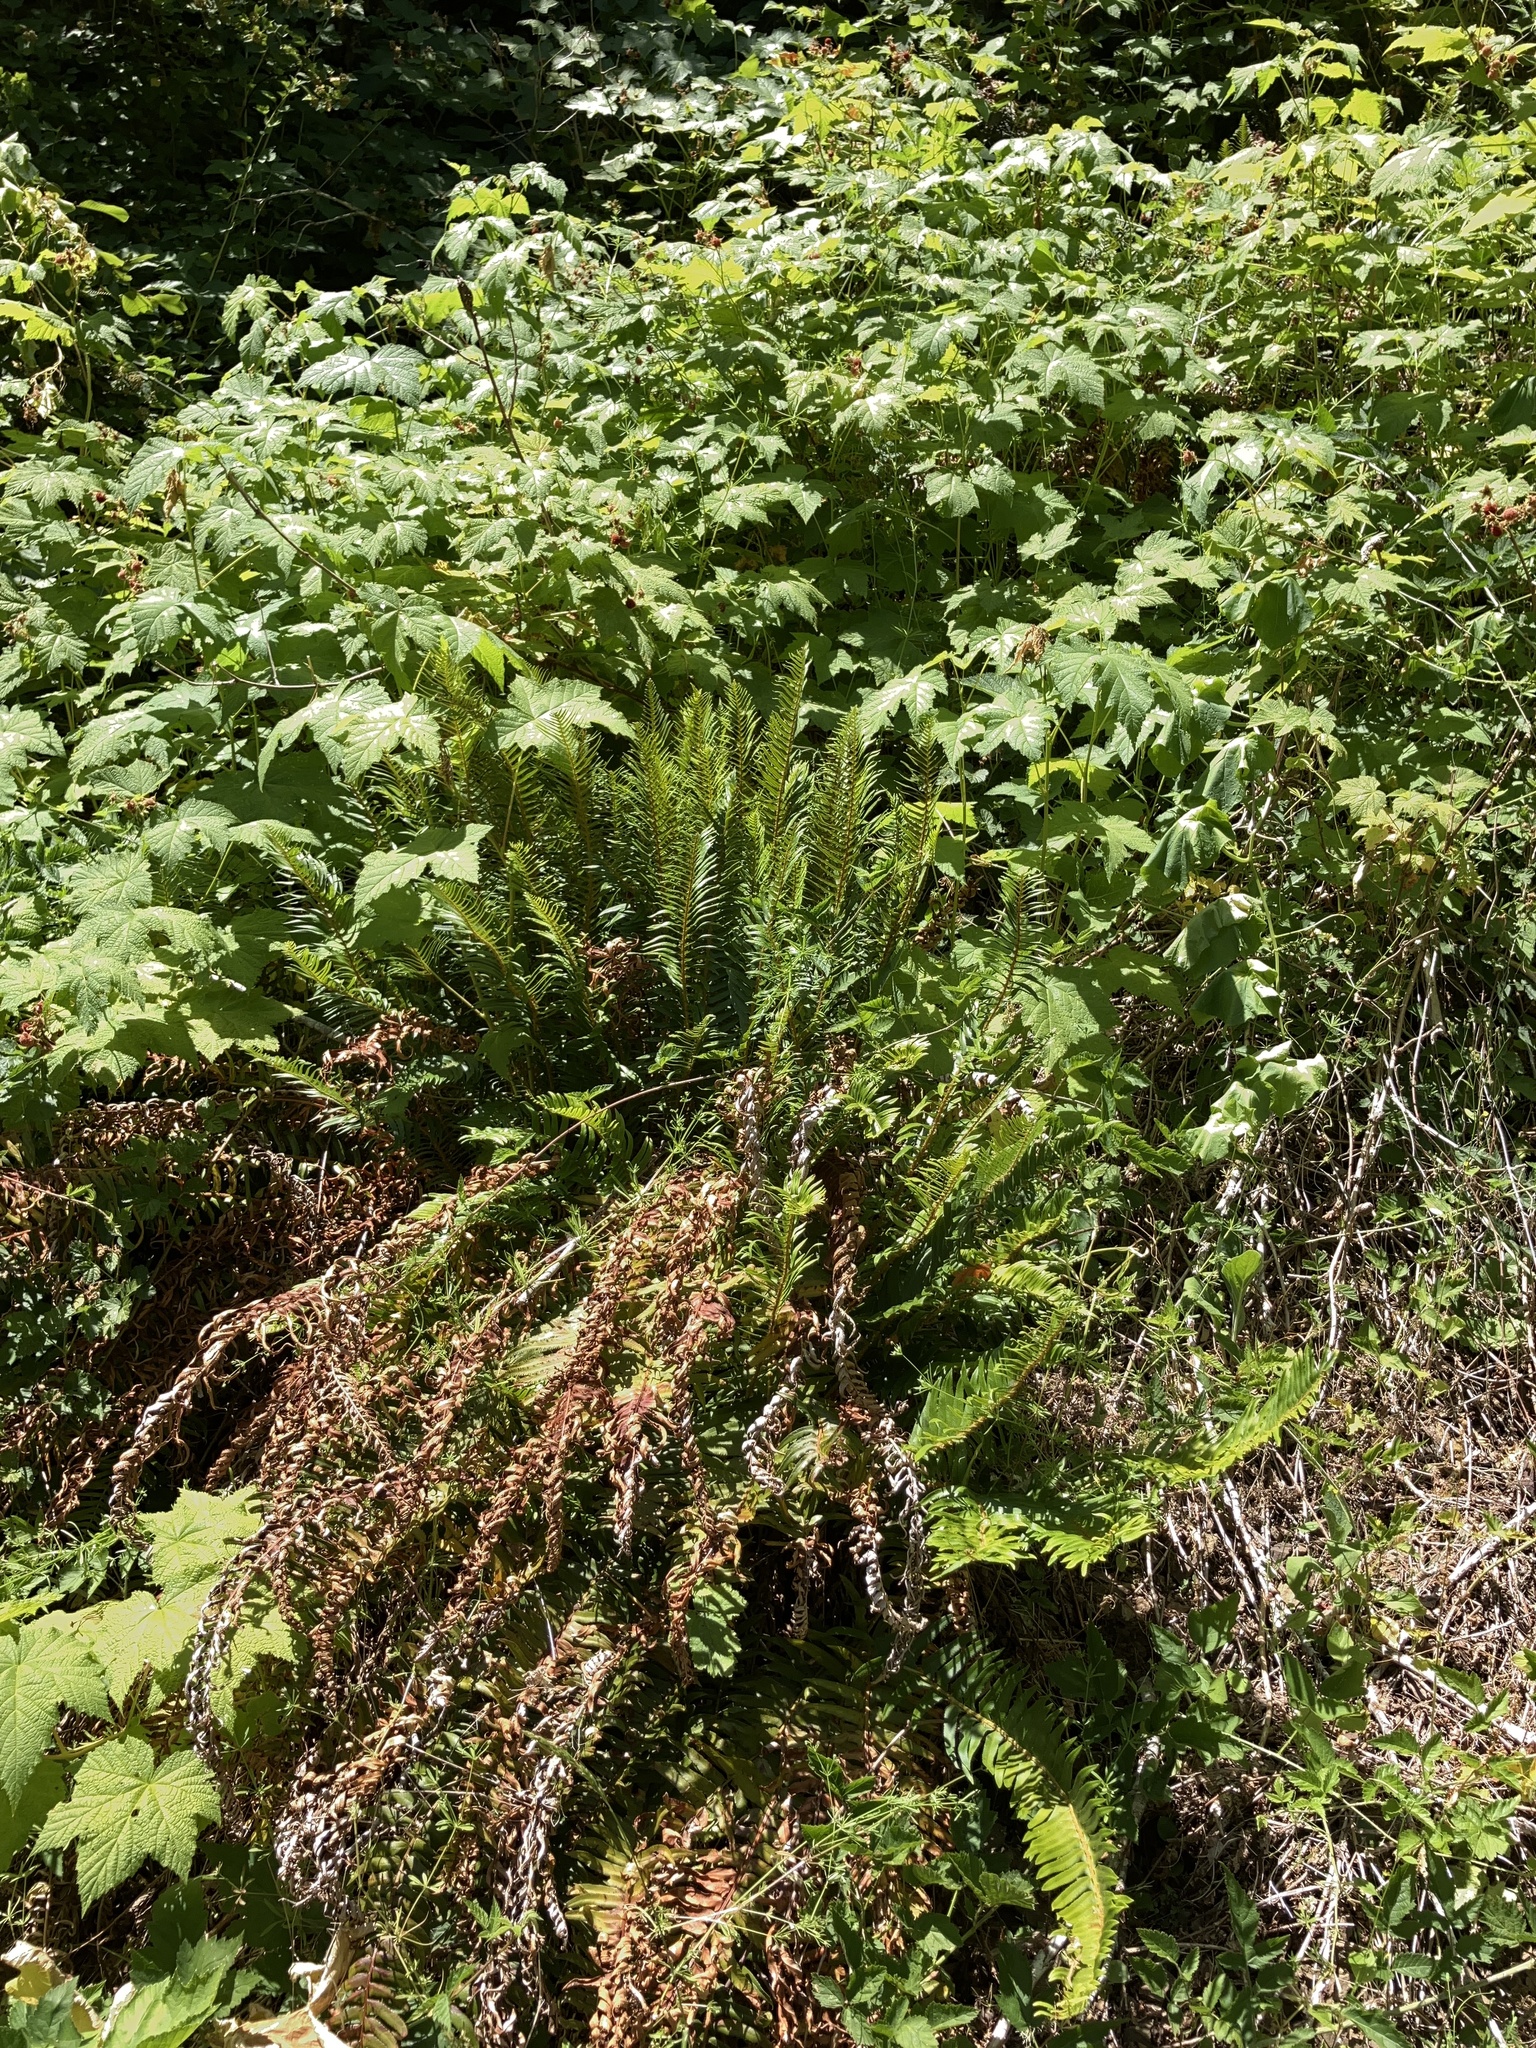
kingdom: Plantae
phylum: Tracheophyta
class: Polypodiopsida
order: Polypodiales
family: Dryopteridaceae
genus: Polystichum
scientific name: Polystichum munitum
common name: Western sword-fern
